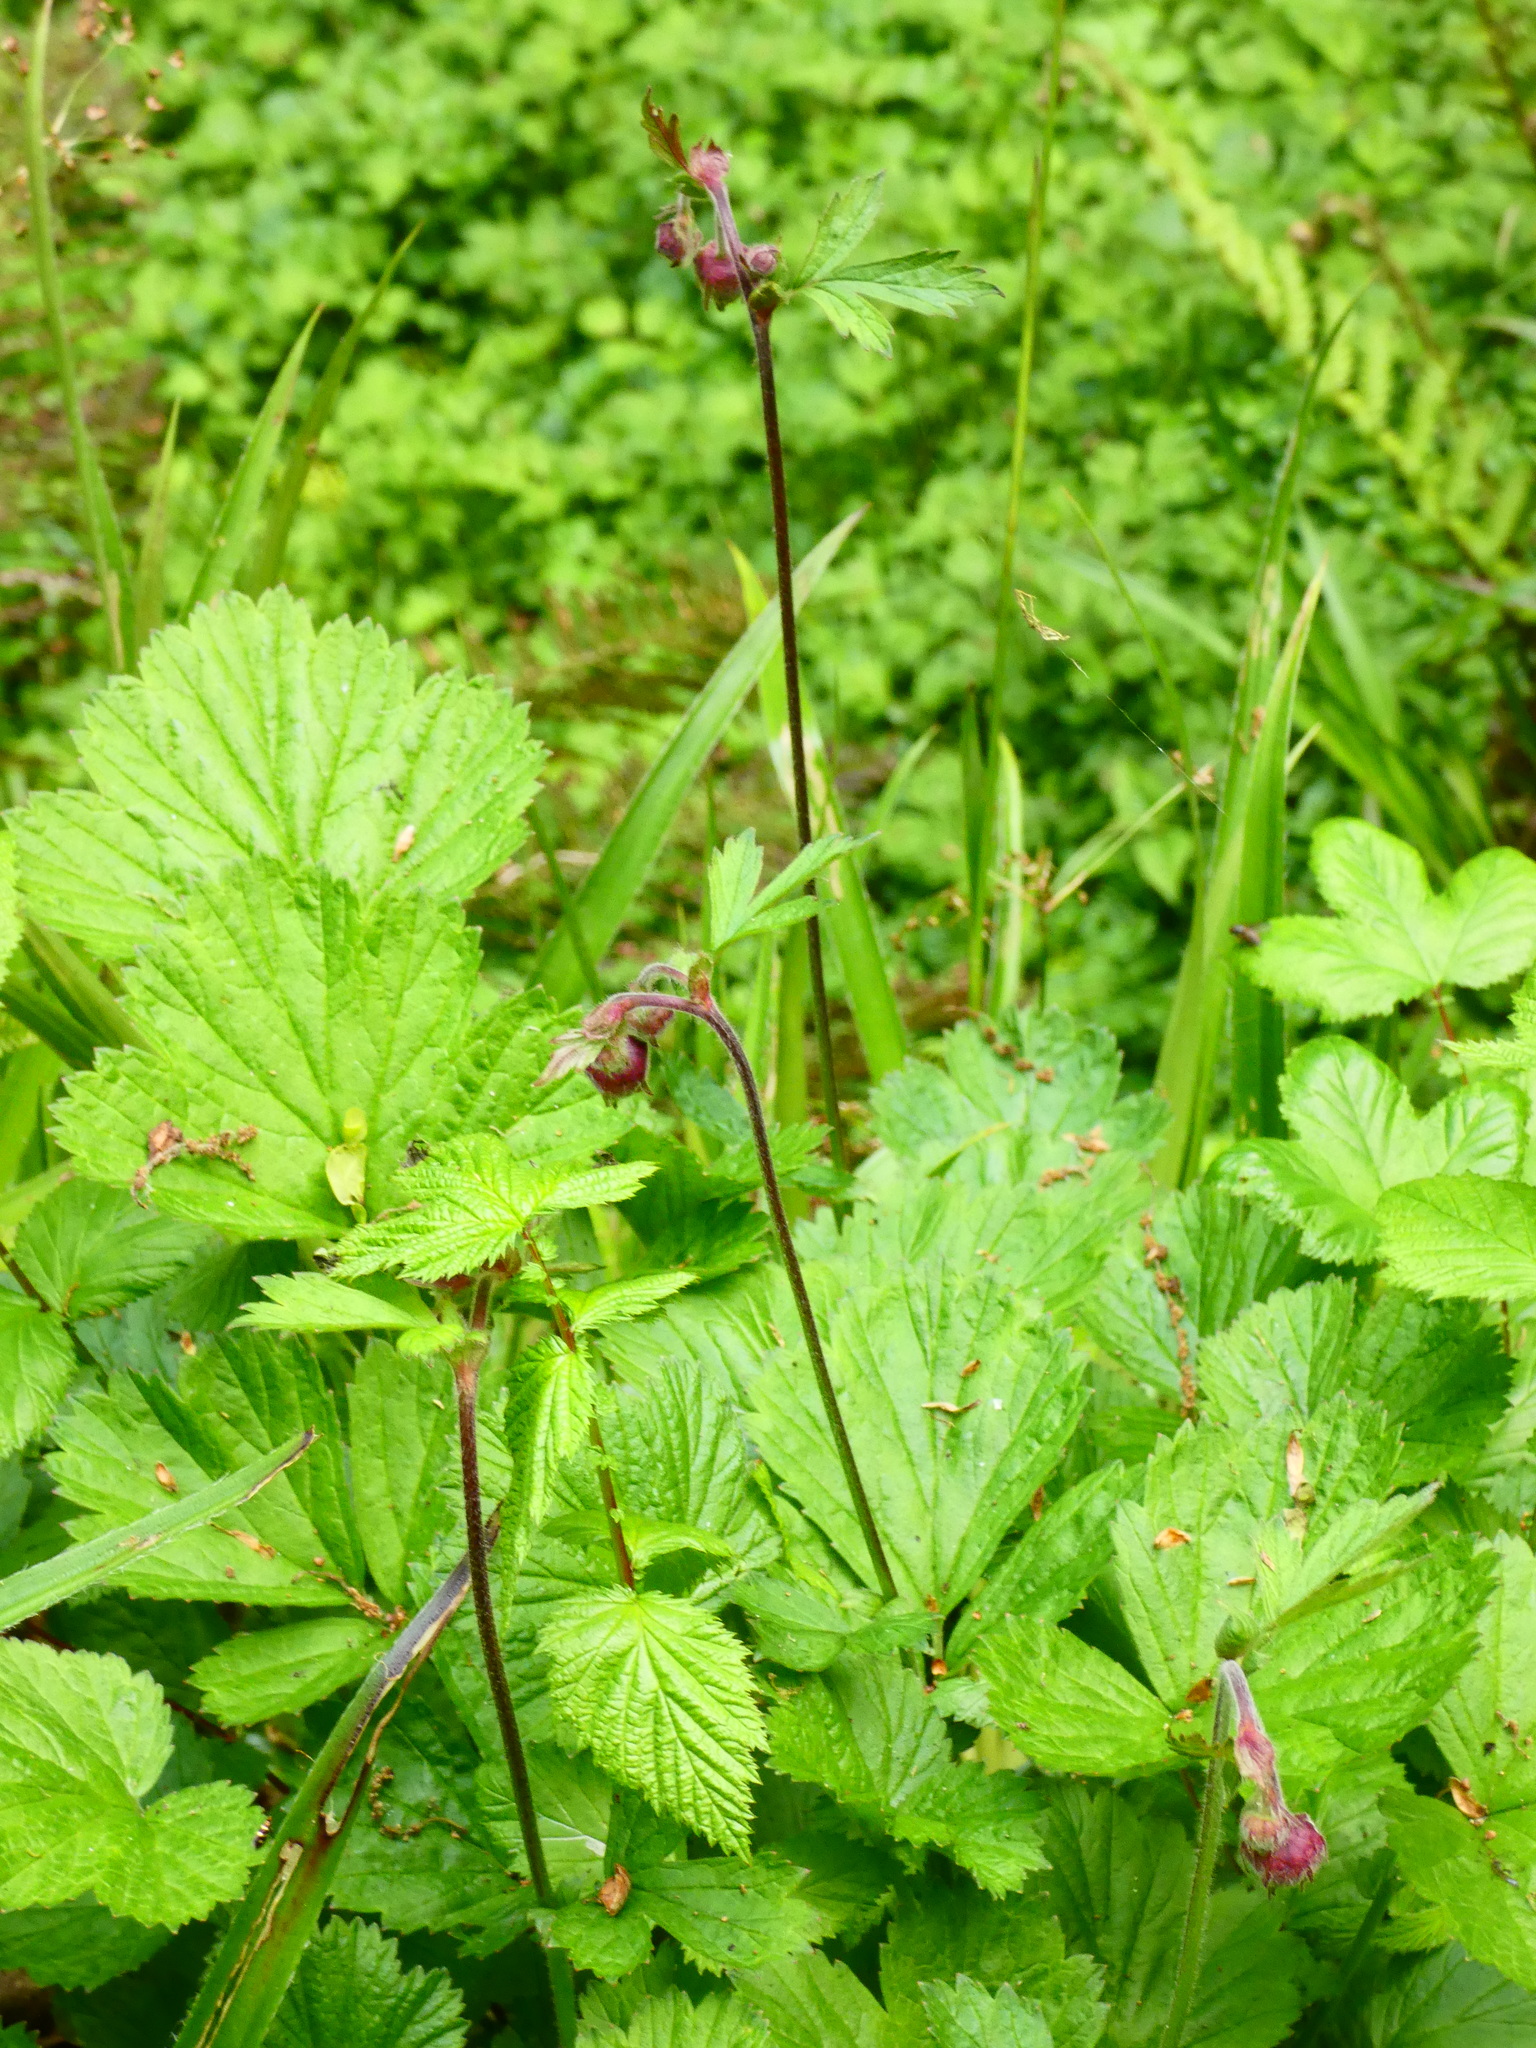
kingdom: Plantae
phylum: Tracheophyta
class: Magnoliopsida
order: Rosales
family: Rosaceae
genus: Geum
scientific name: Geum rivale
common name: Water avens
